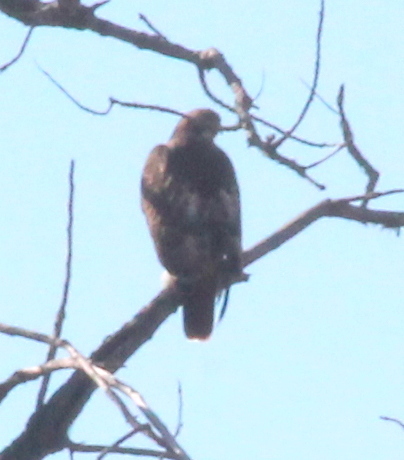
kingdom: Animalia
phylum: Chordata
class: Aves
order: Accipitriformes
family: Accipitridae
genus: Buteo
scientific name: Buteo jamaicensis
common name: Red-tailed hawk
